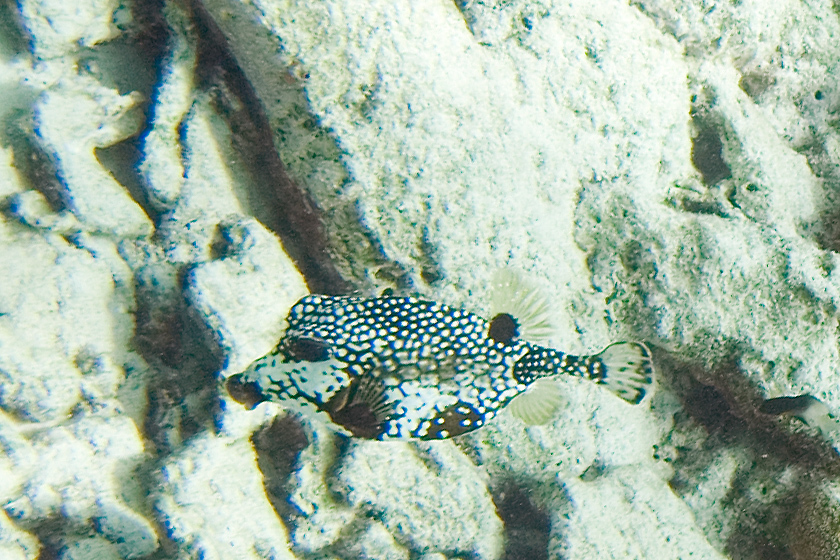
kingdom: Animalia
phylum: Chordata
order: Tetraodontiformes
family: Ostraciidae
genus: Lactophrys
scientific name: Lactophrys triqueter
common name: Smooth trunkfish
